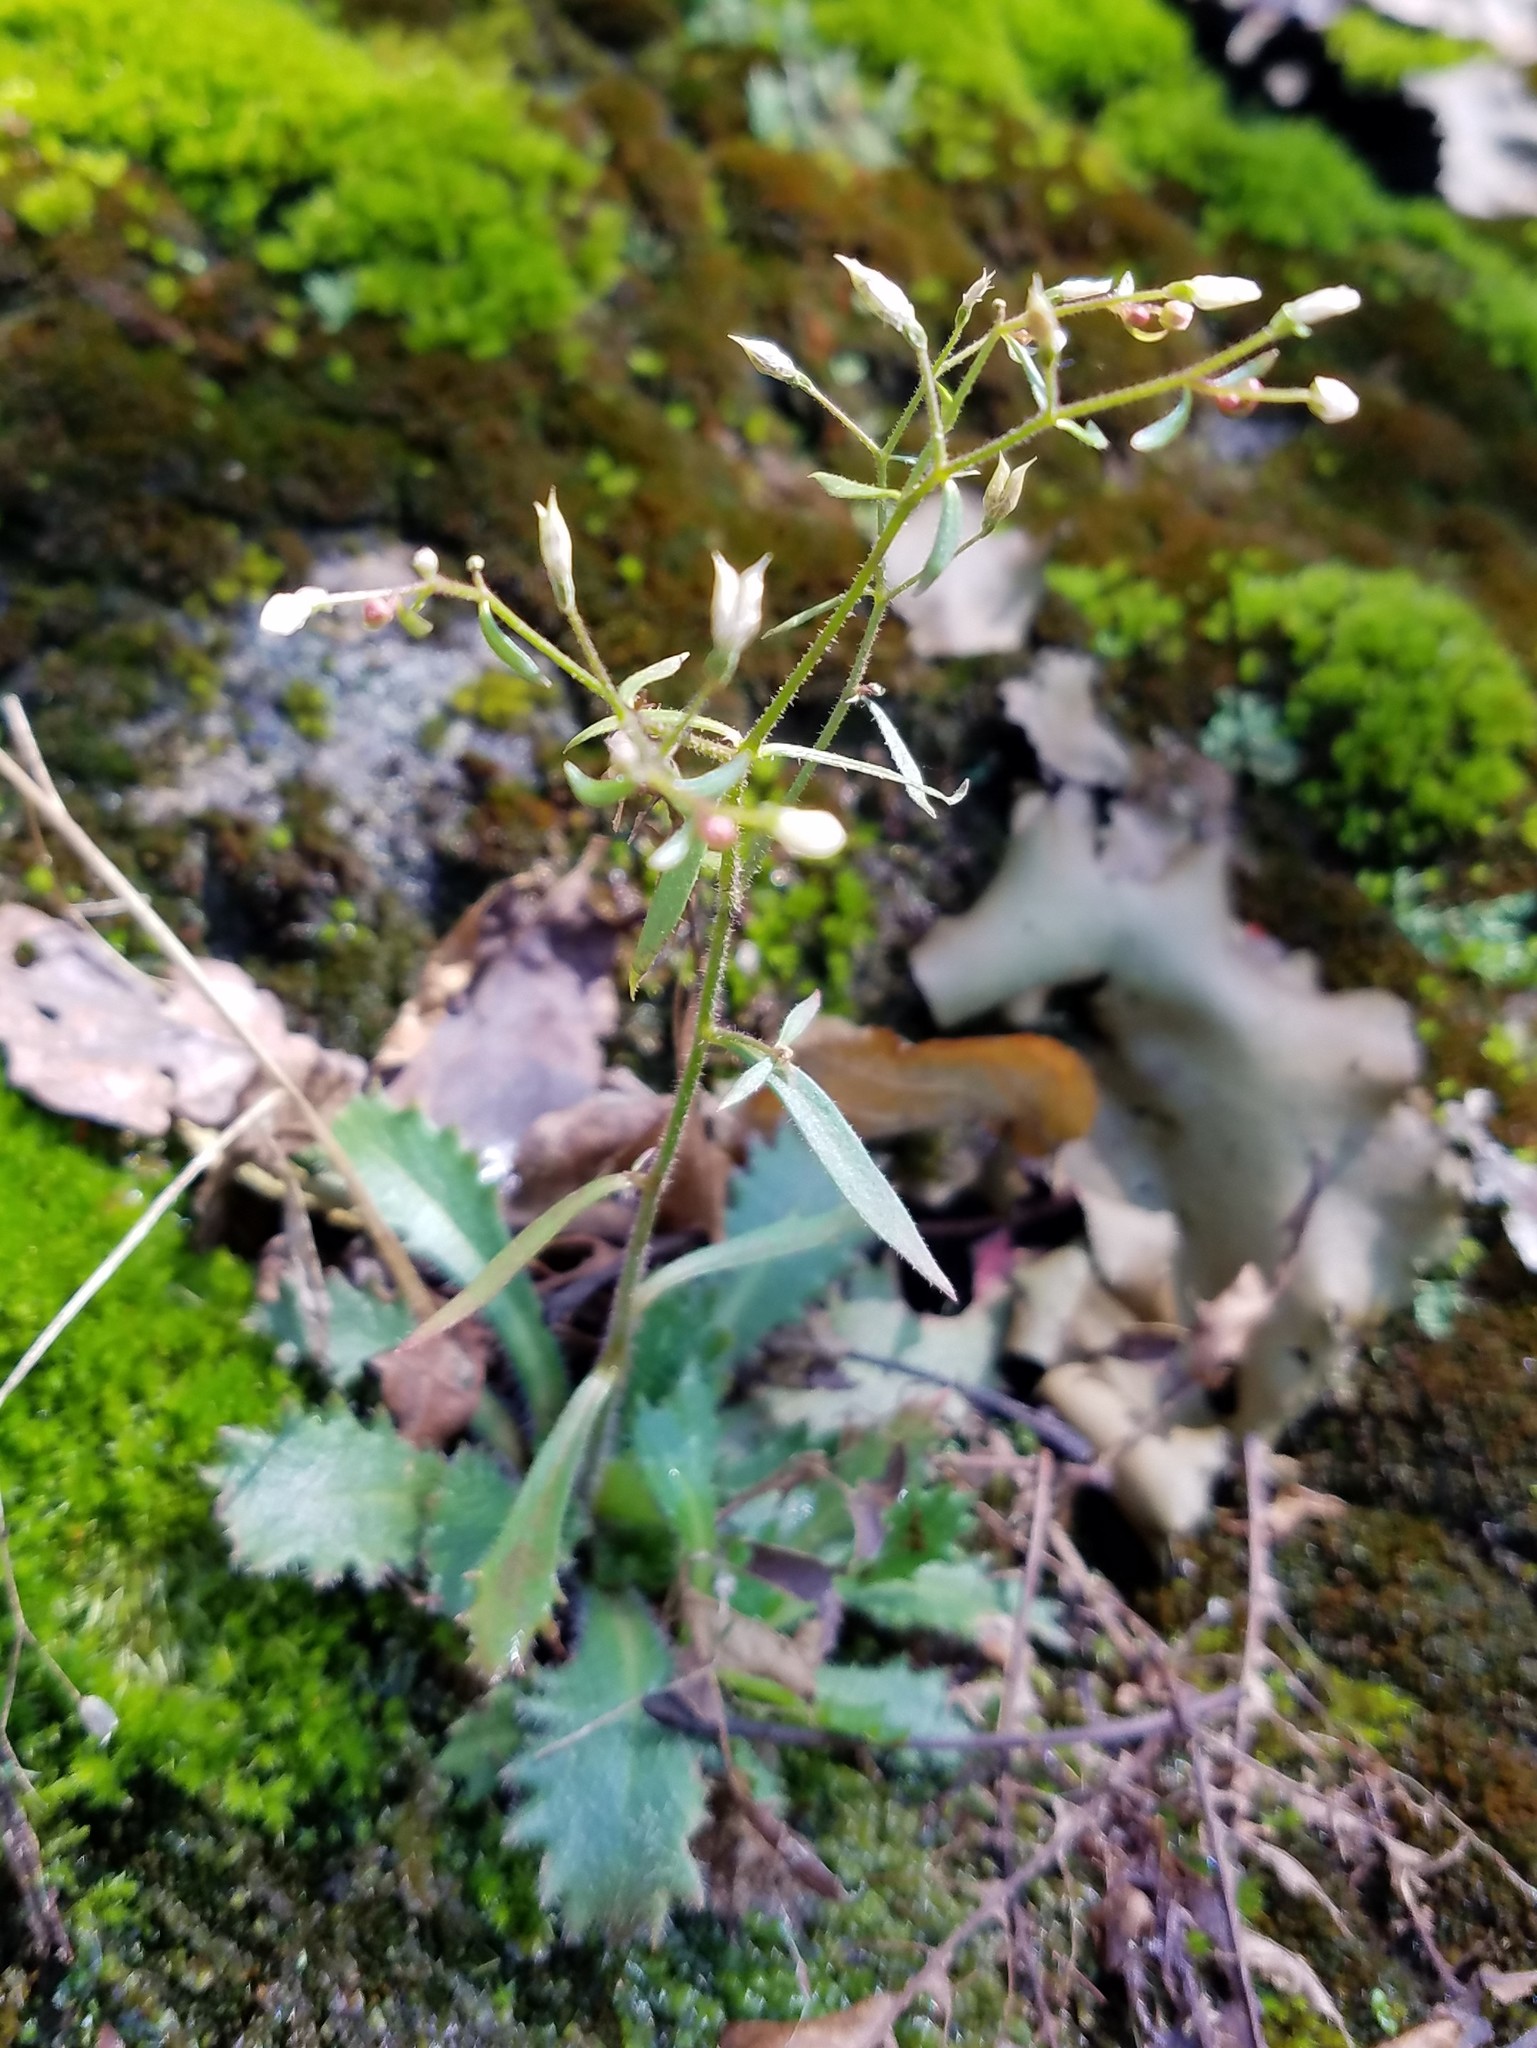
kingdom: Plantae
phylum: Tracheophyta
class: Magnoliopsida
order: Saxifragales
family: Saxifragaceae
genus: Micranthes
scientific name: Micranthes petiolaris
